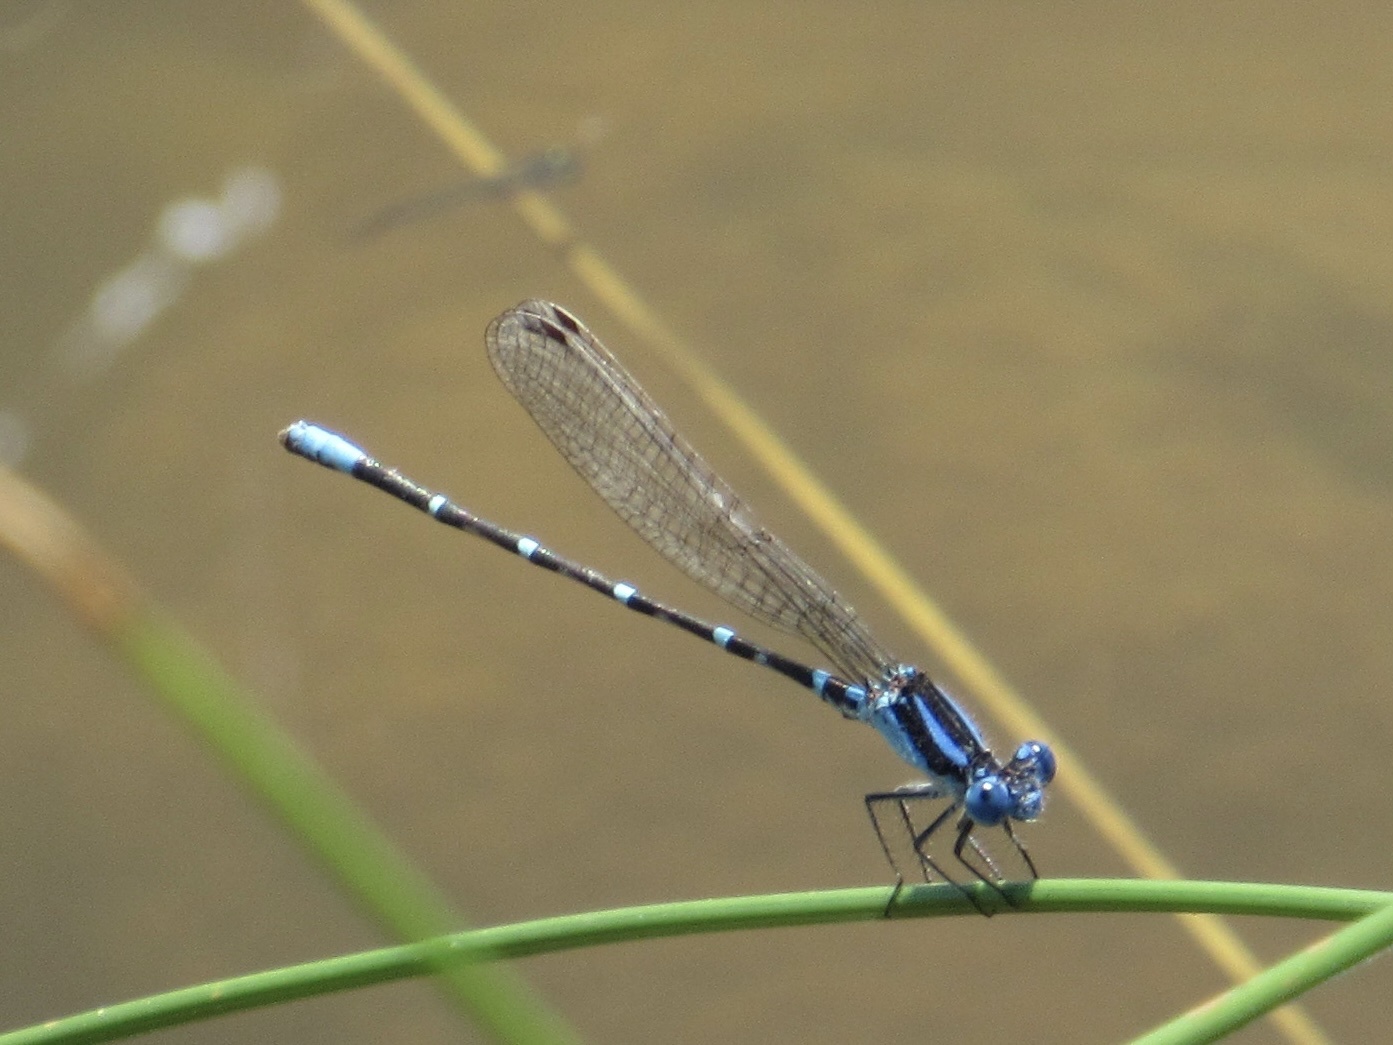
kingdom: Animalia
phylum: Arthropoda
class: Insecta
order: Odonata
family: Coenagrionidae
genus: Argia
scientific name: Argia sedula
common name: Blue-ringed dancer
